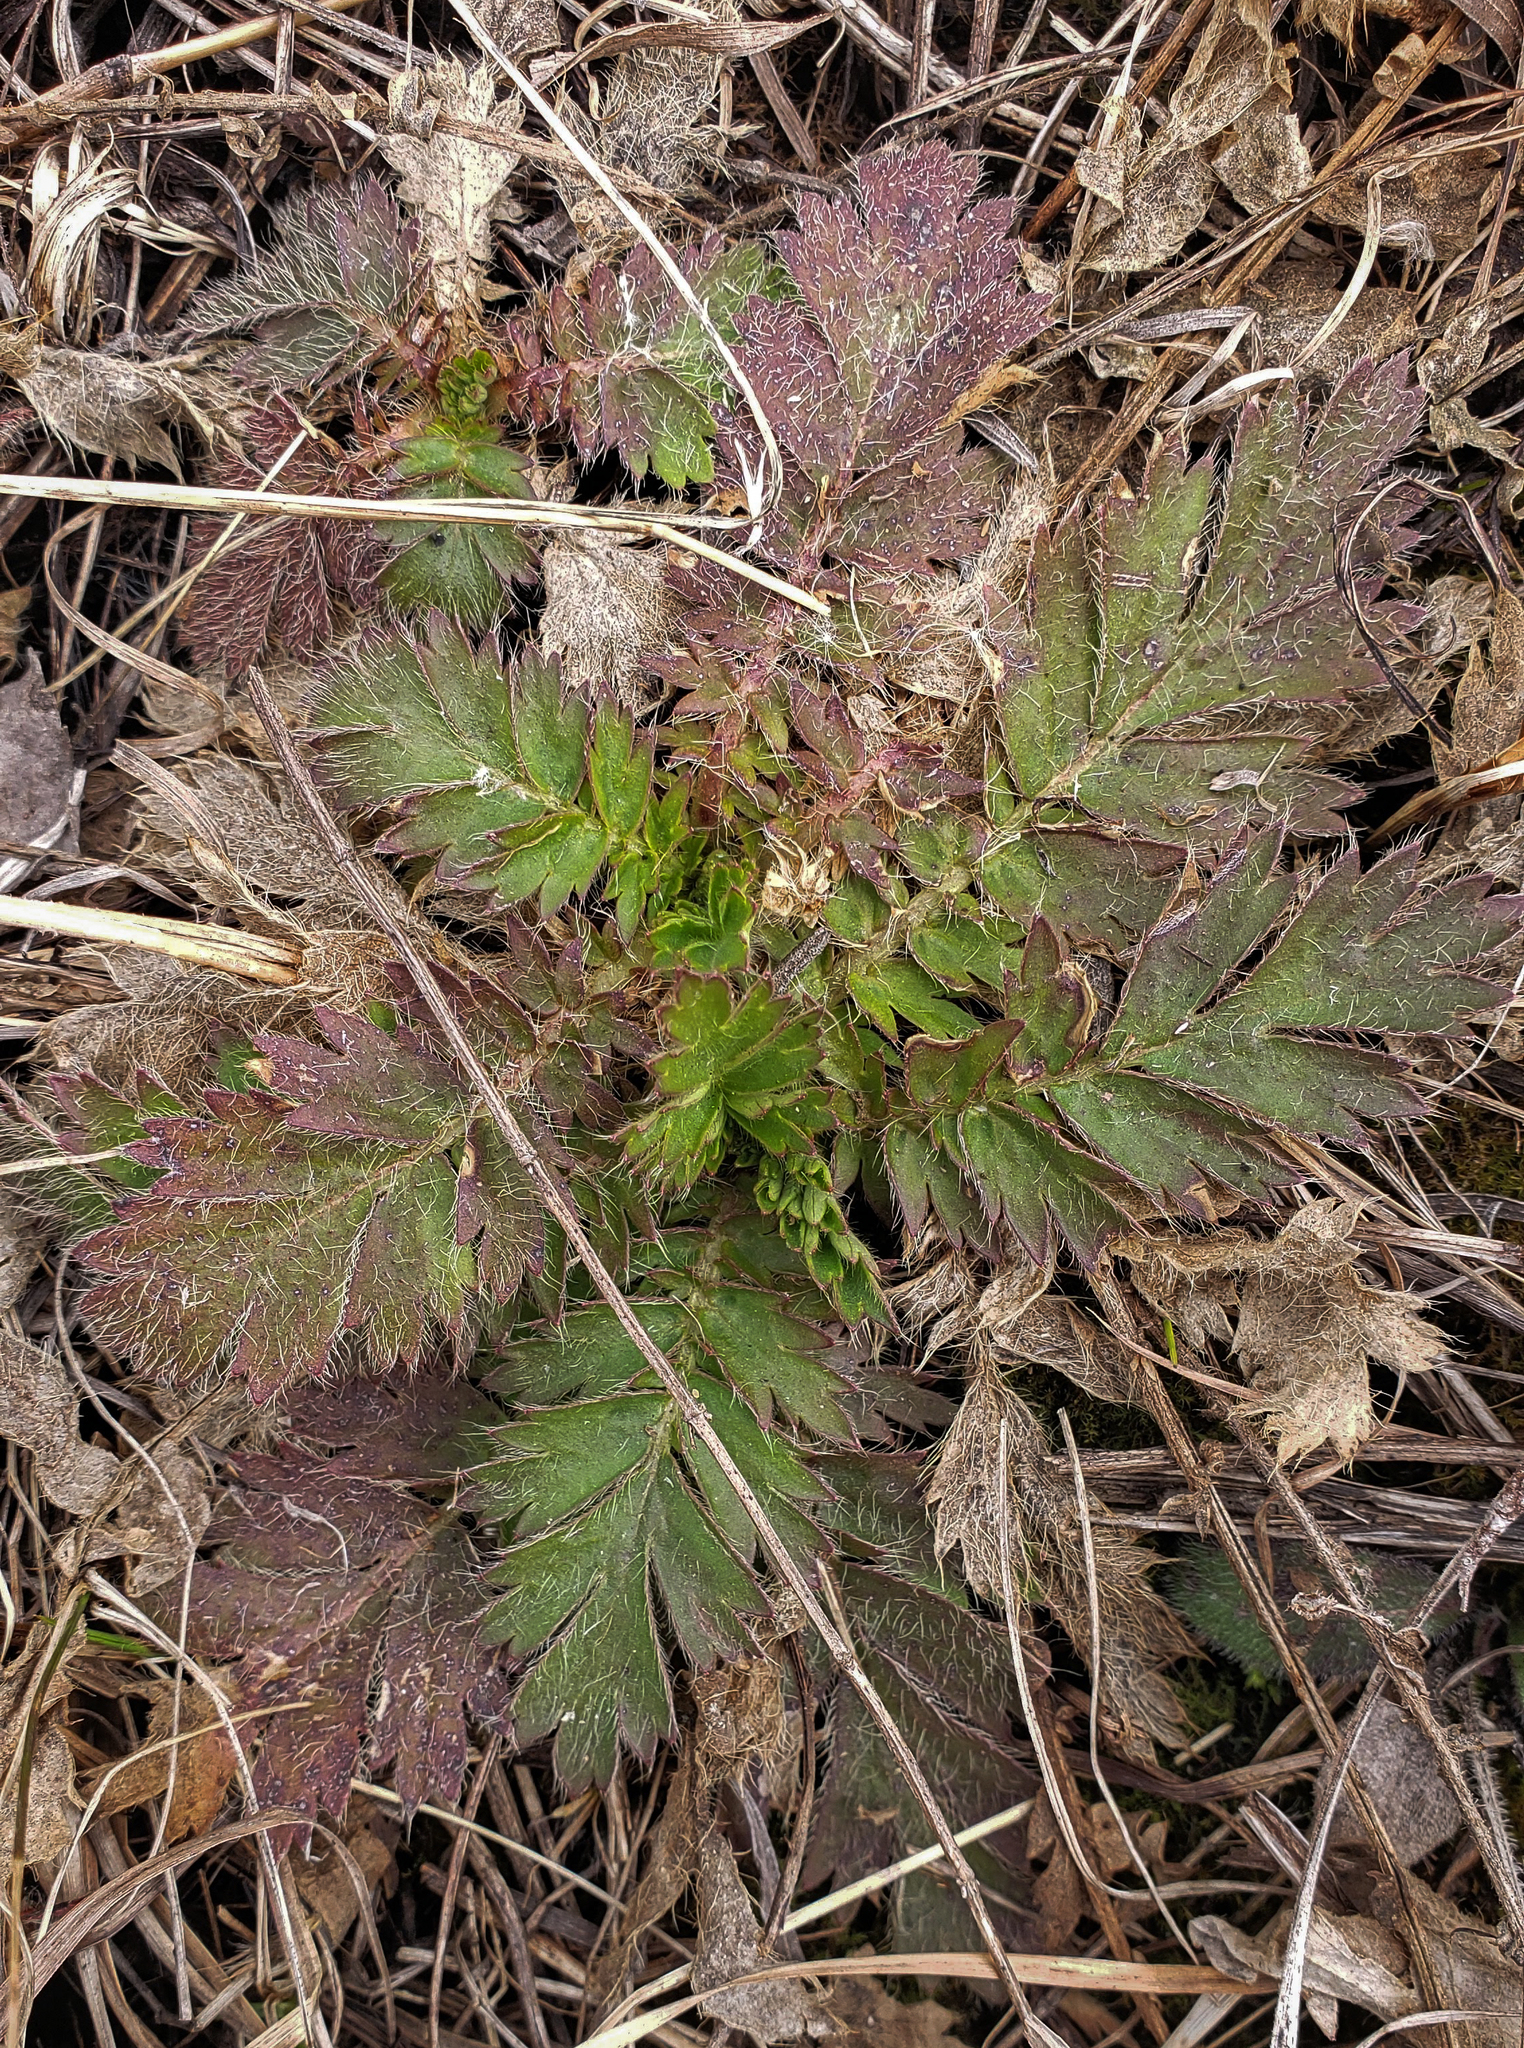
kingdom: Plantae
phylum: Tracheophyta
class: Magnoliopsida
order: Rosales
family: Rosaceae
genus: Geum
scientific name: Geum triflorum
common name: Old man's whiskers
